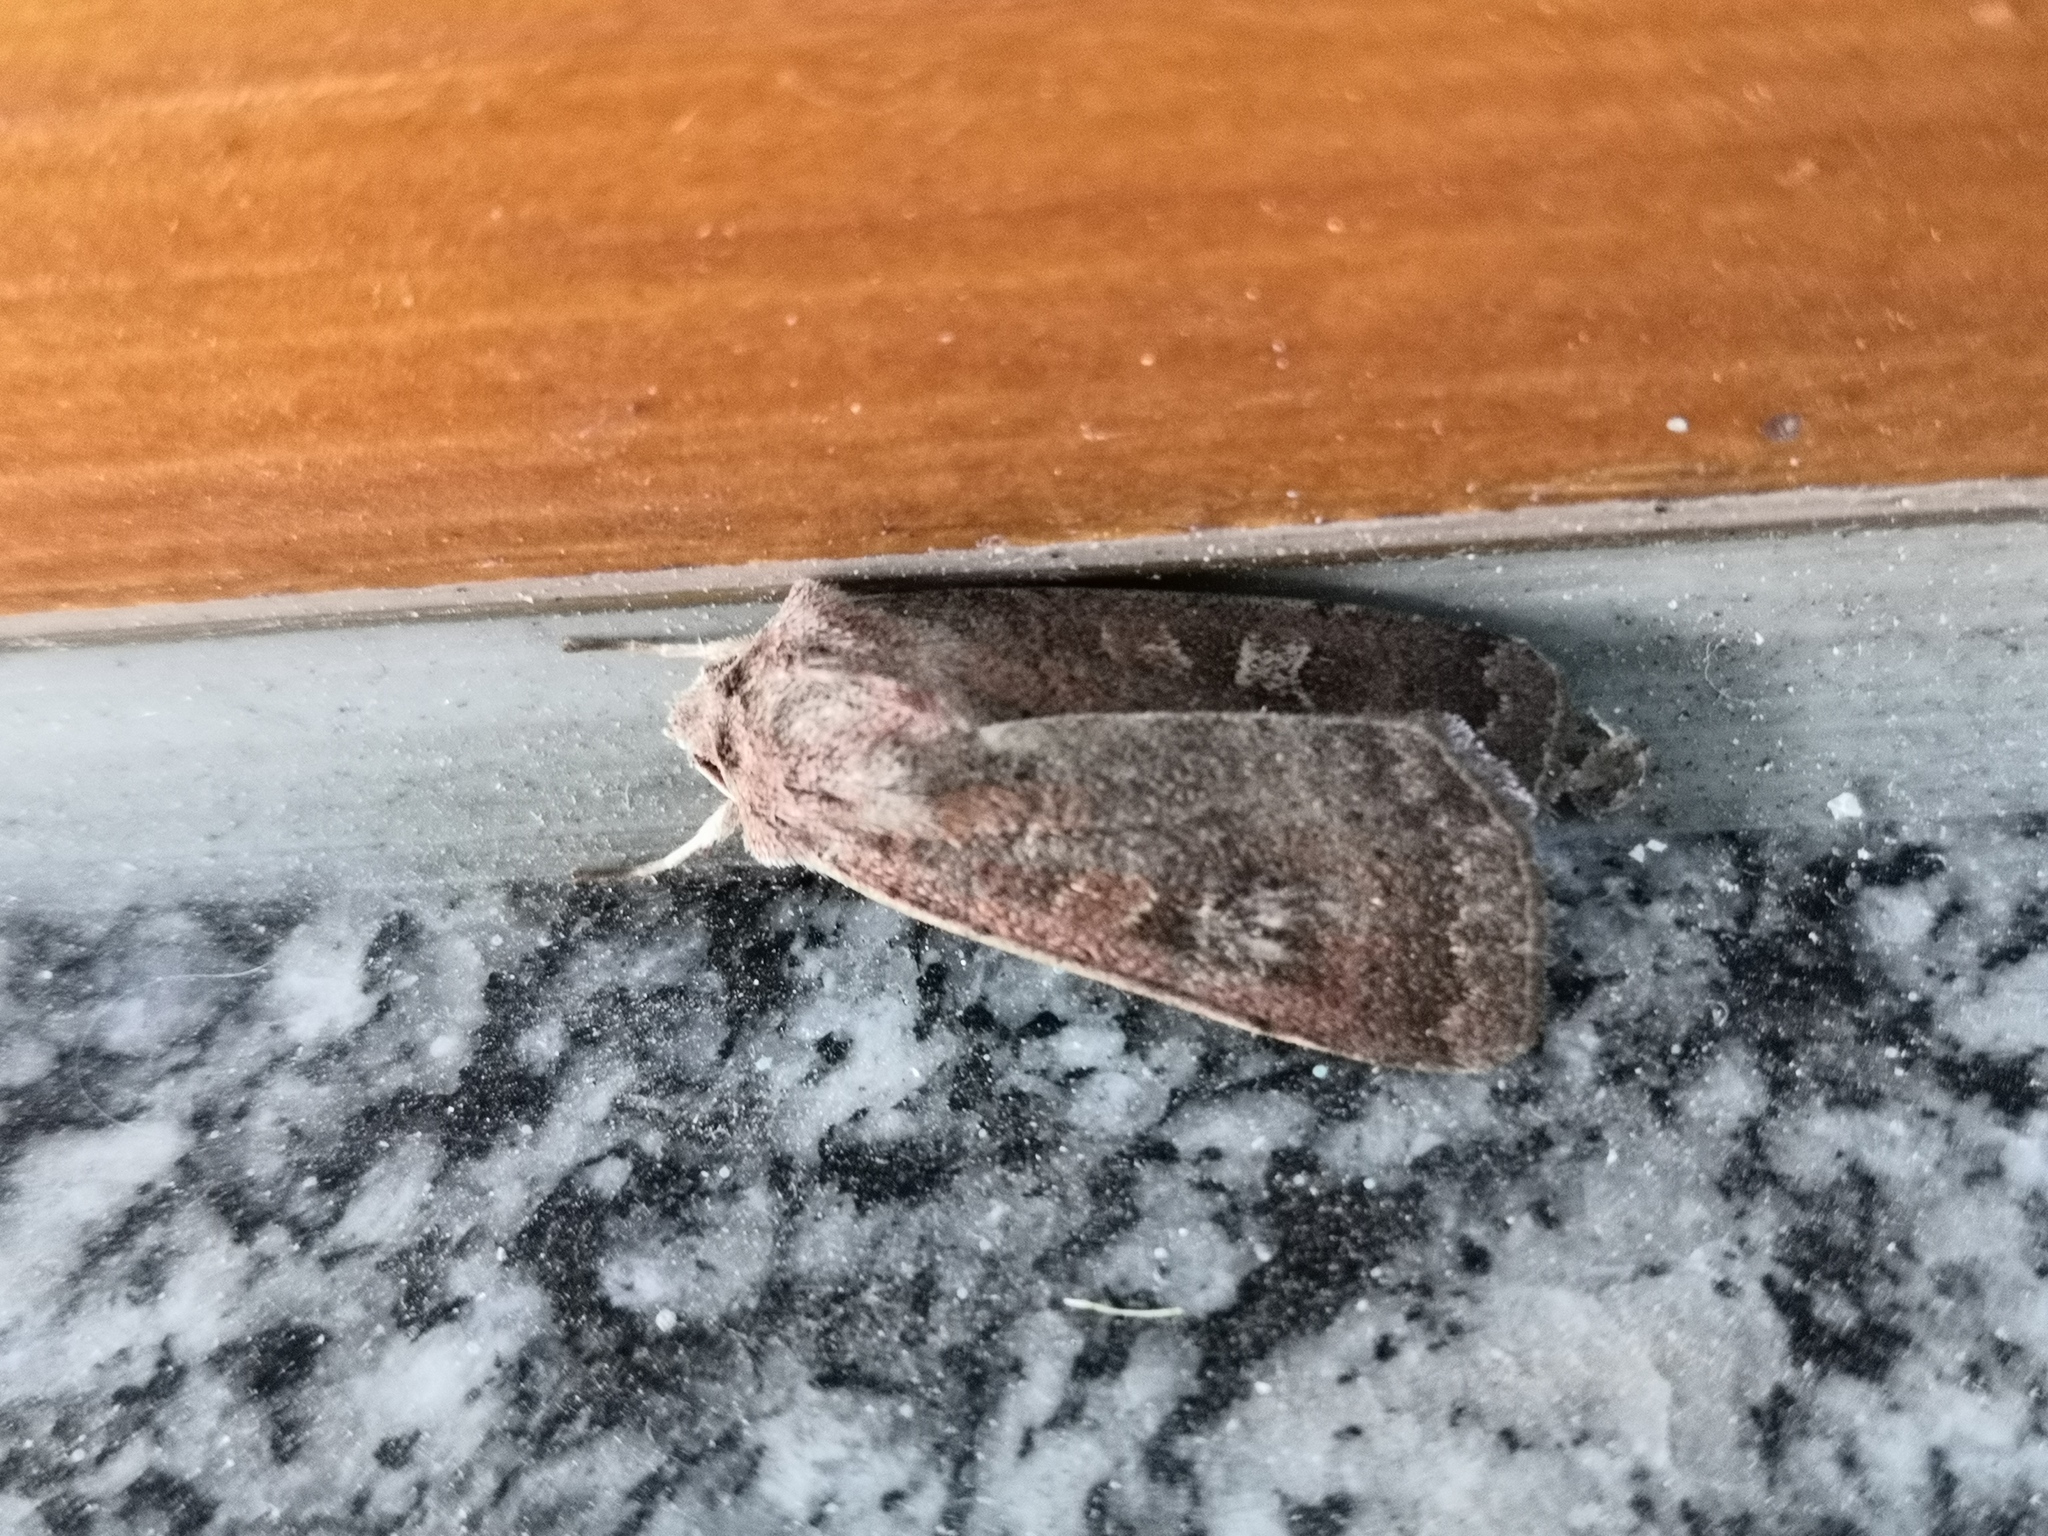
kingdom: Animalia
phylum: Arthropoda
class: Insecta
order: Lepidoptera
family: Noctuidae
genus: Xestia
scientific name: Xestia xanthographa
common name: Square-spot rustic
